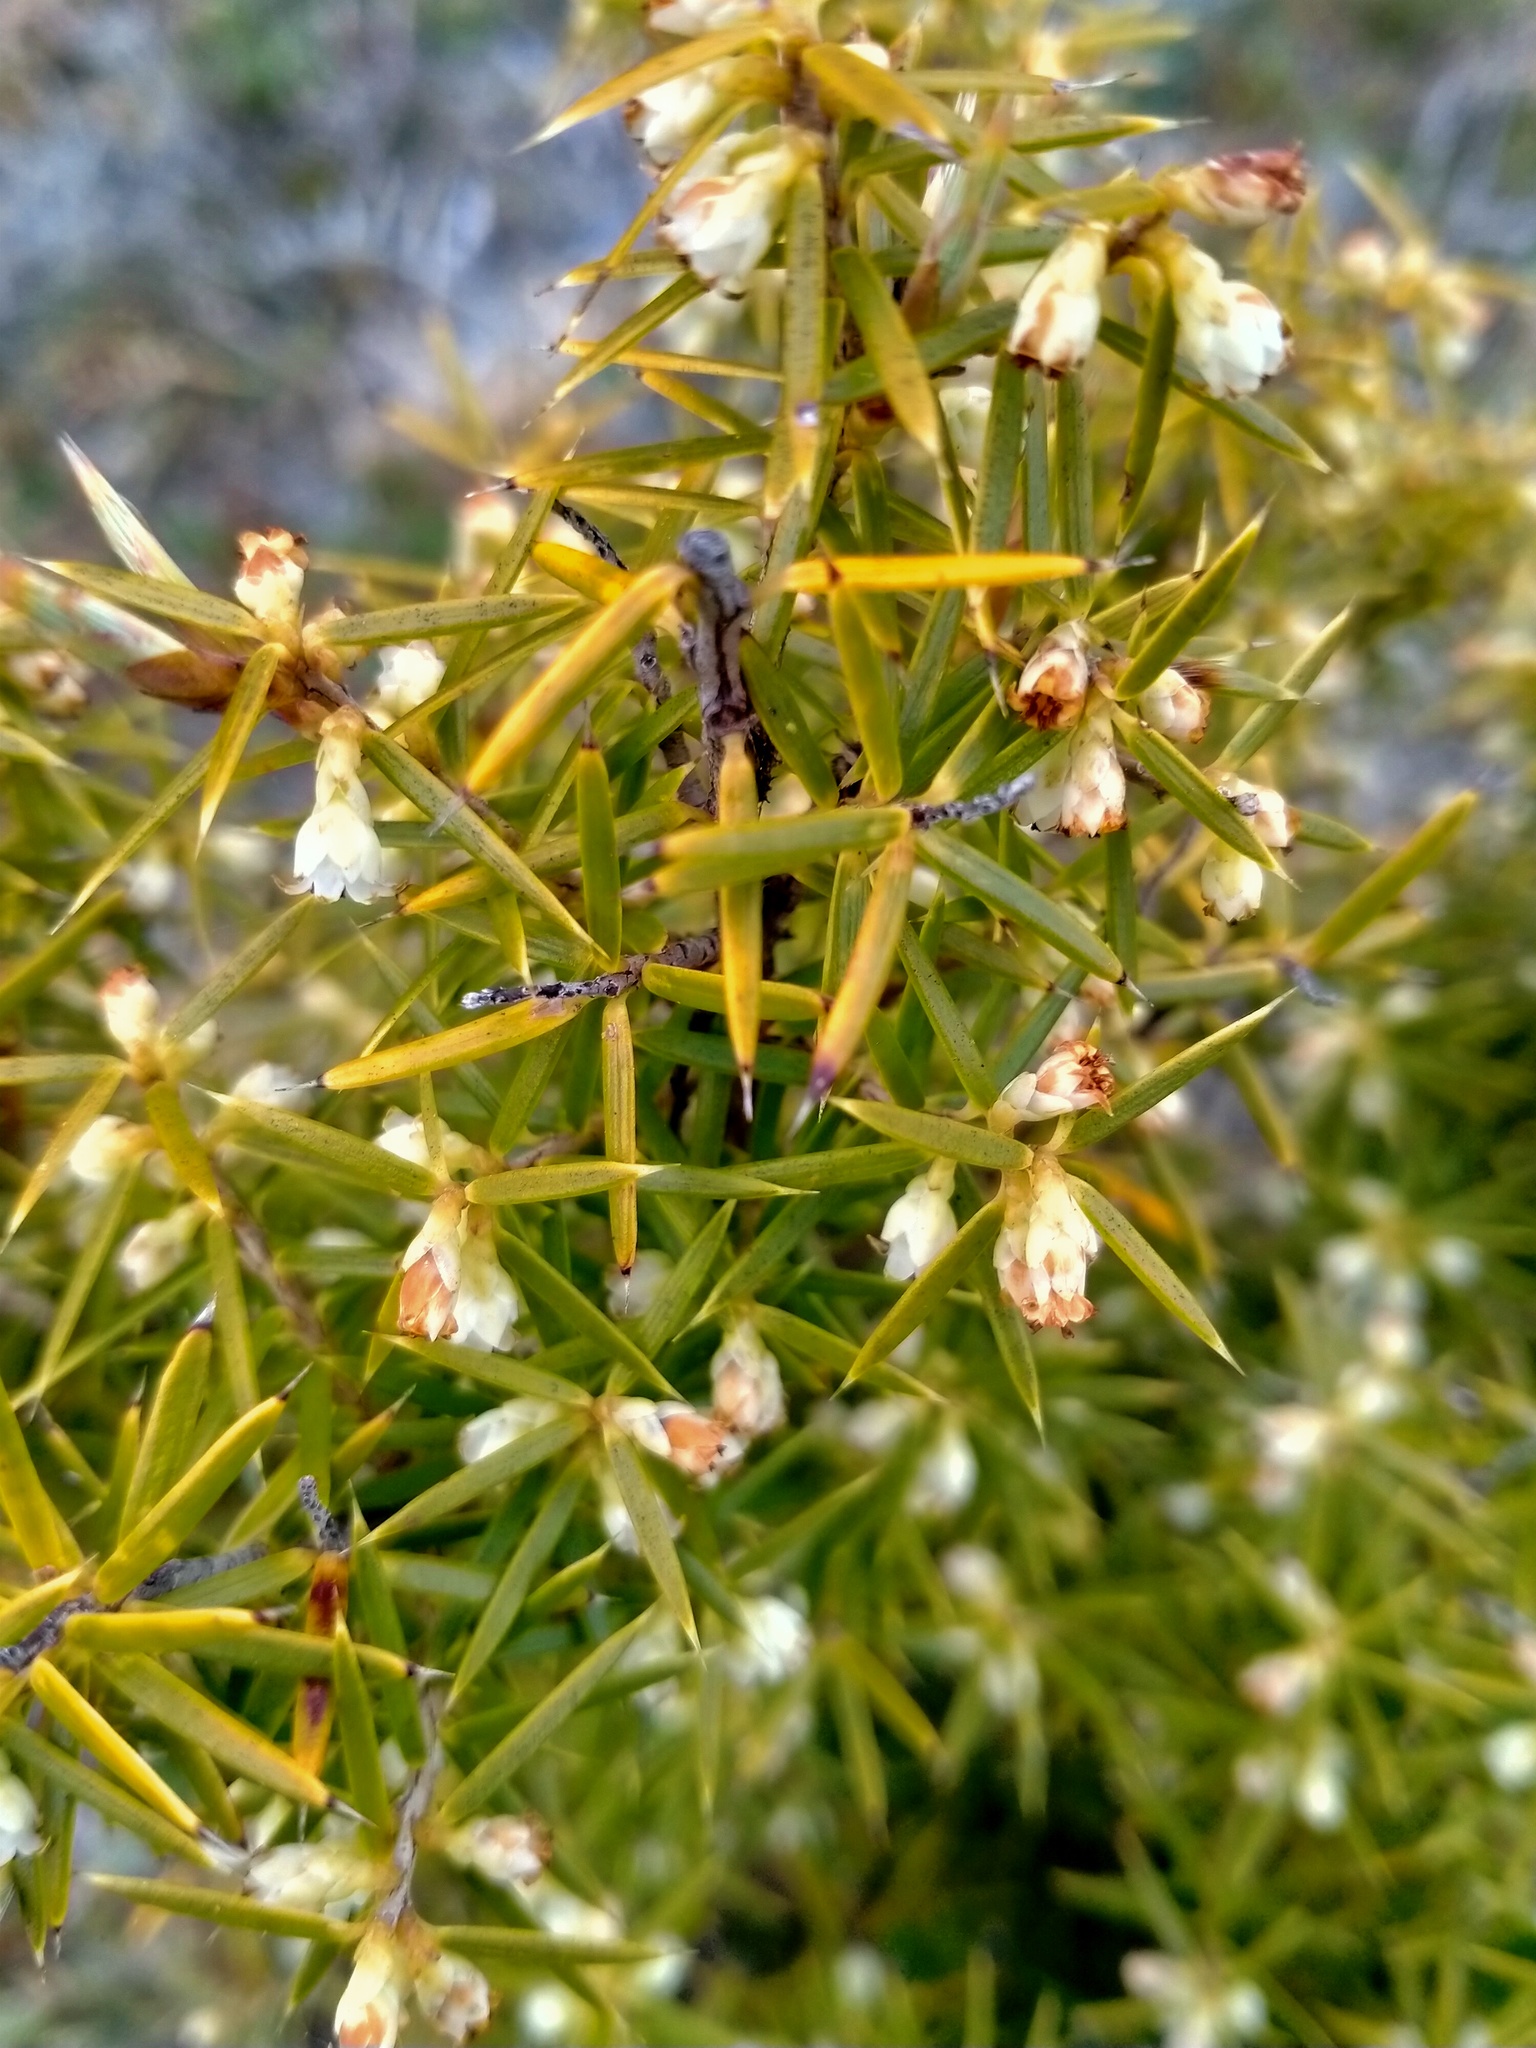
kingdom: Plantae
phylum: Tracheophyta
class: Magnoliopsida
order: Ericales
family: Ericaceae
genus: Leptecophylla
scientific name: Leptecophylla juniperina
